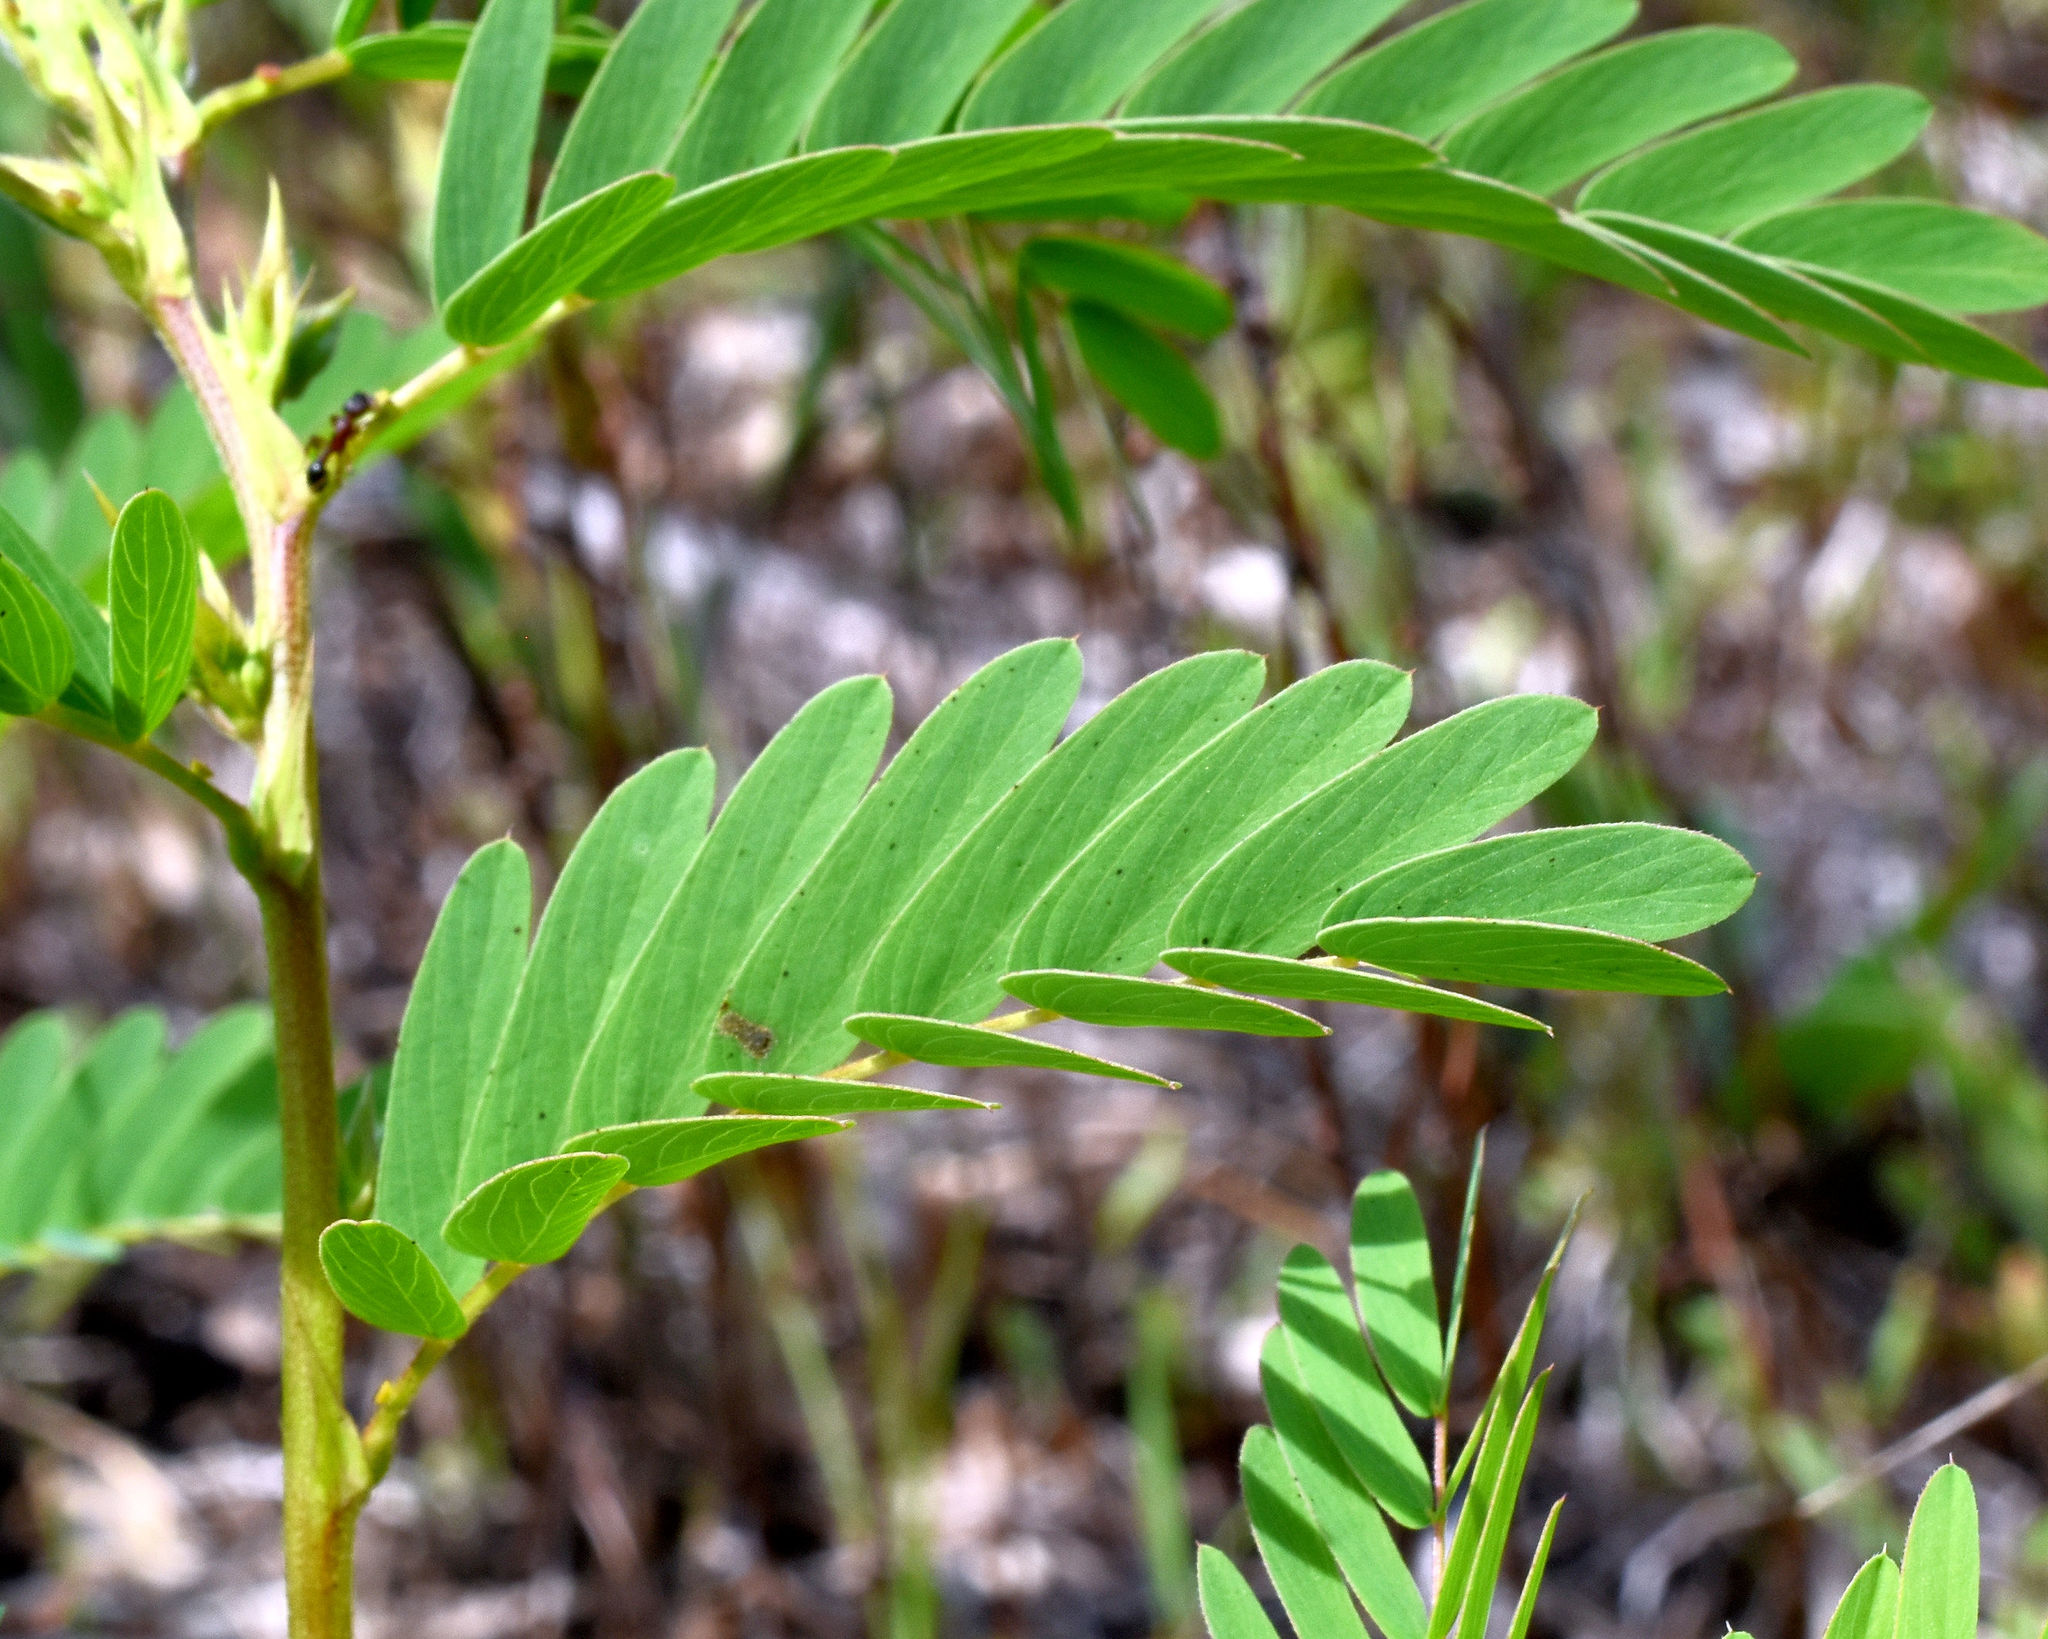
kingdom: Plantae
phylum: Tracheophyta
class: Magnoliopsida
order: Fabales
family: Fabaceae
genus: Chamaecrista
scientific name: Chamaecrista fasciculata
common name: Golden cassia
